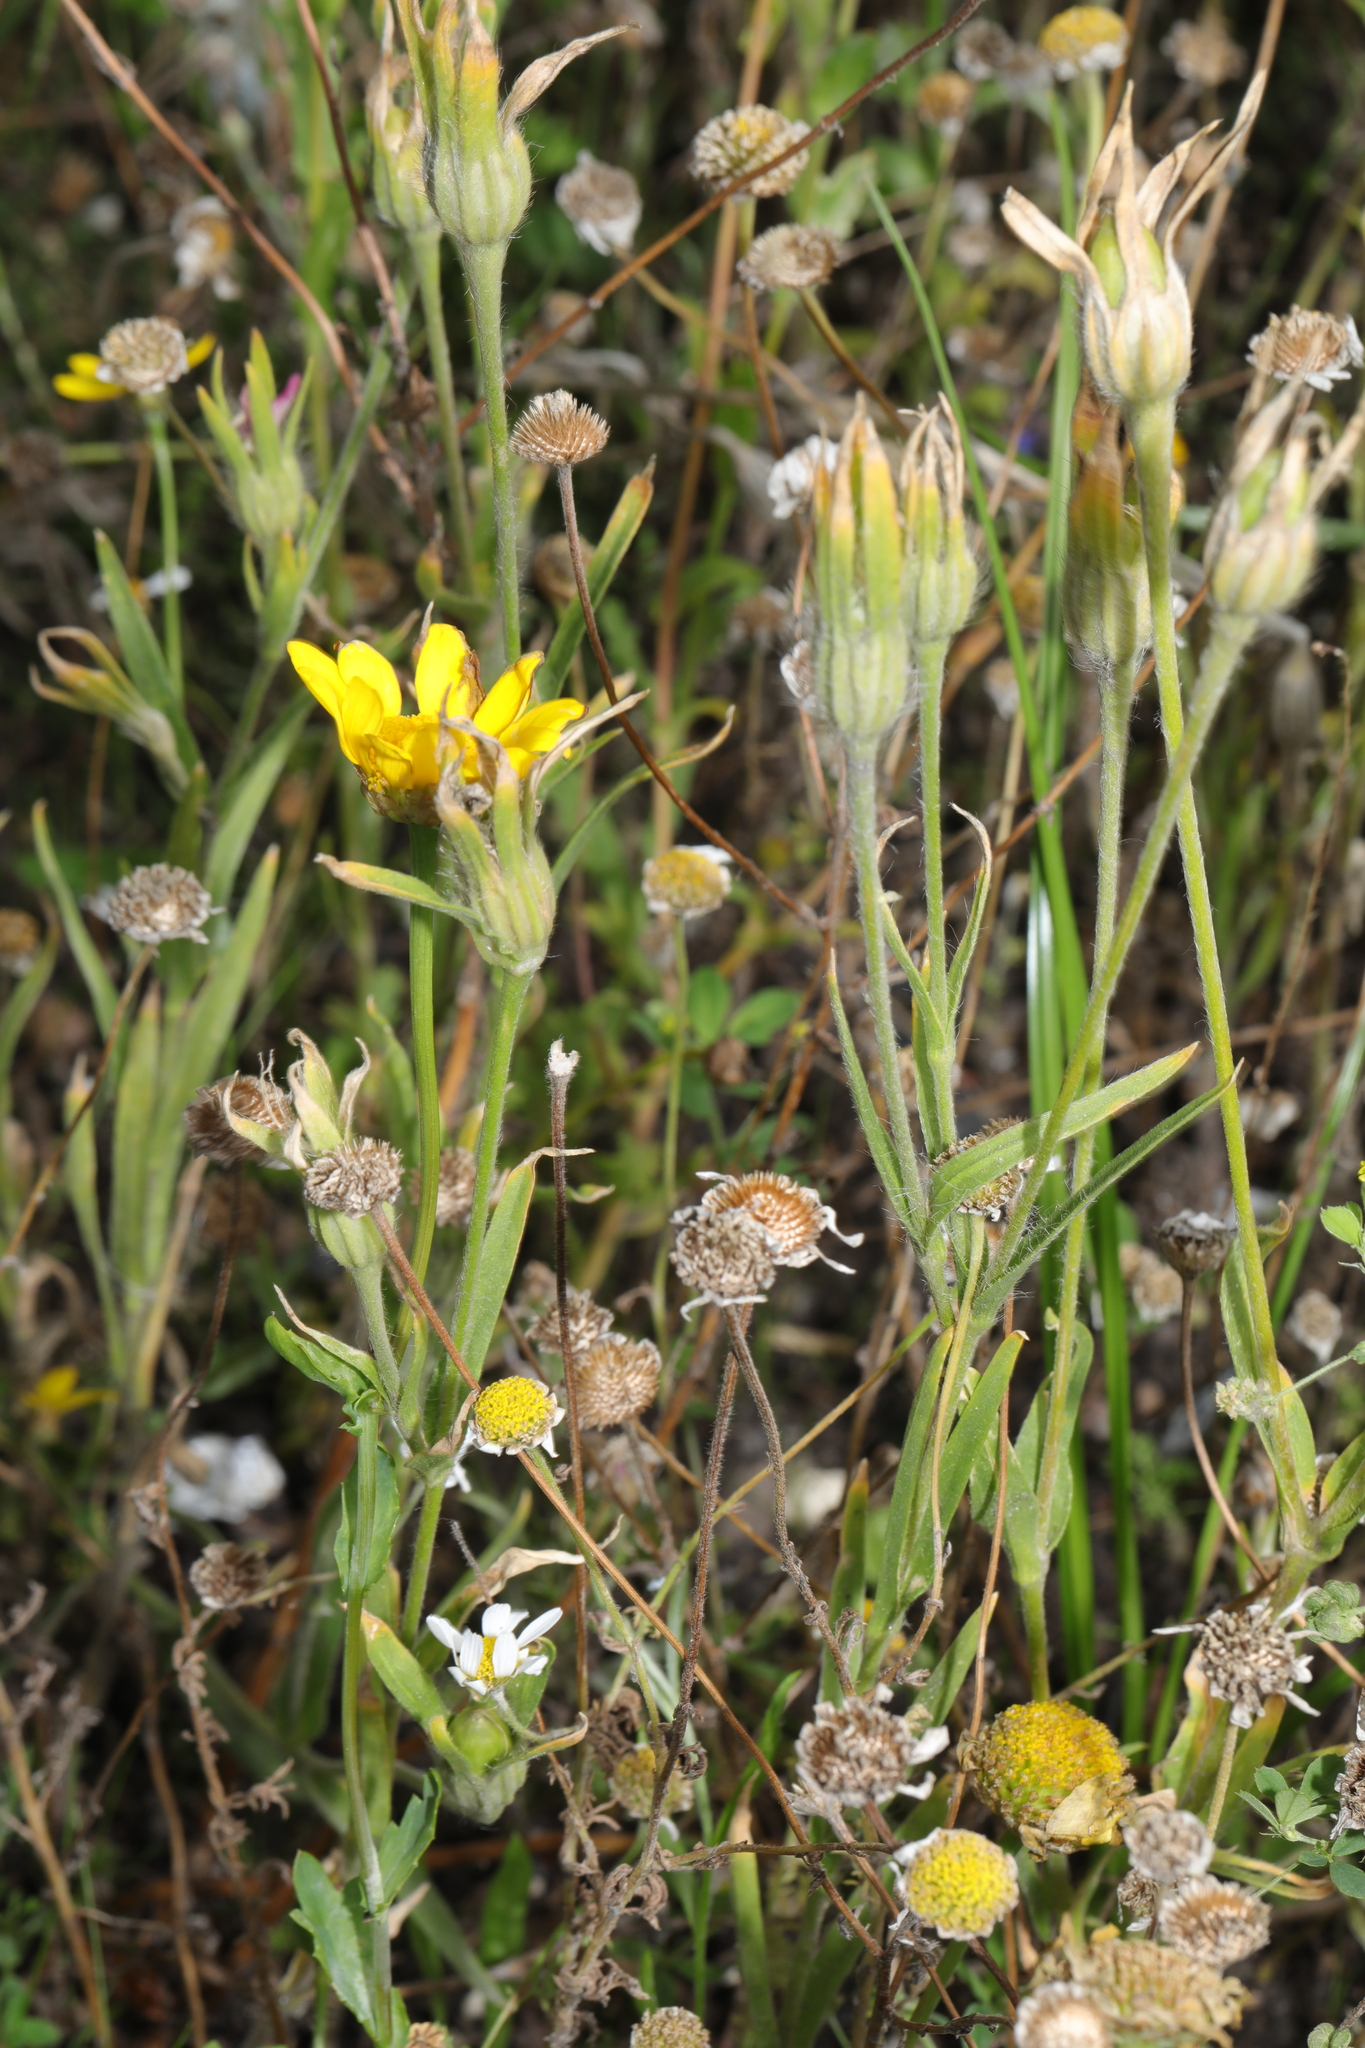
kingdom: Plantae
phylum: Tracheophyta
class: Magnoliopsida
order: Asterales
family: Asteraceae
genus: Glebionis
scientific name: Glebionis segetum
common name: Corndaisy
